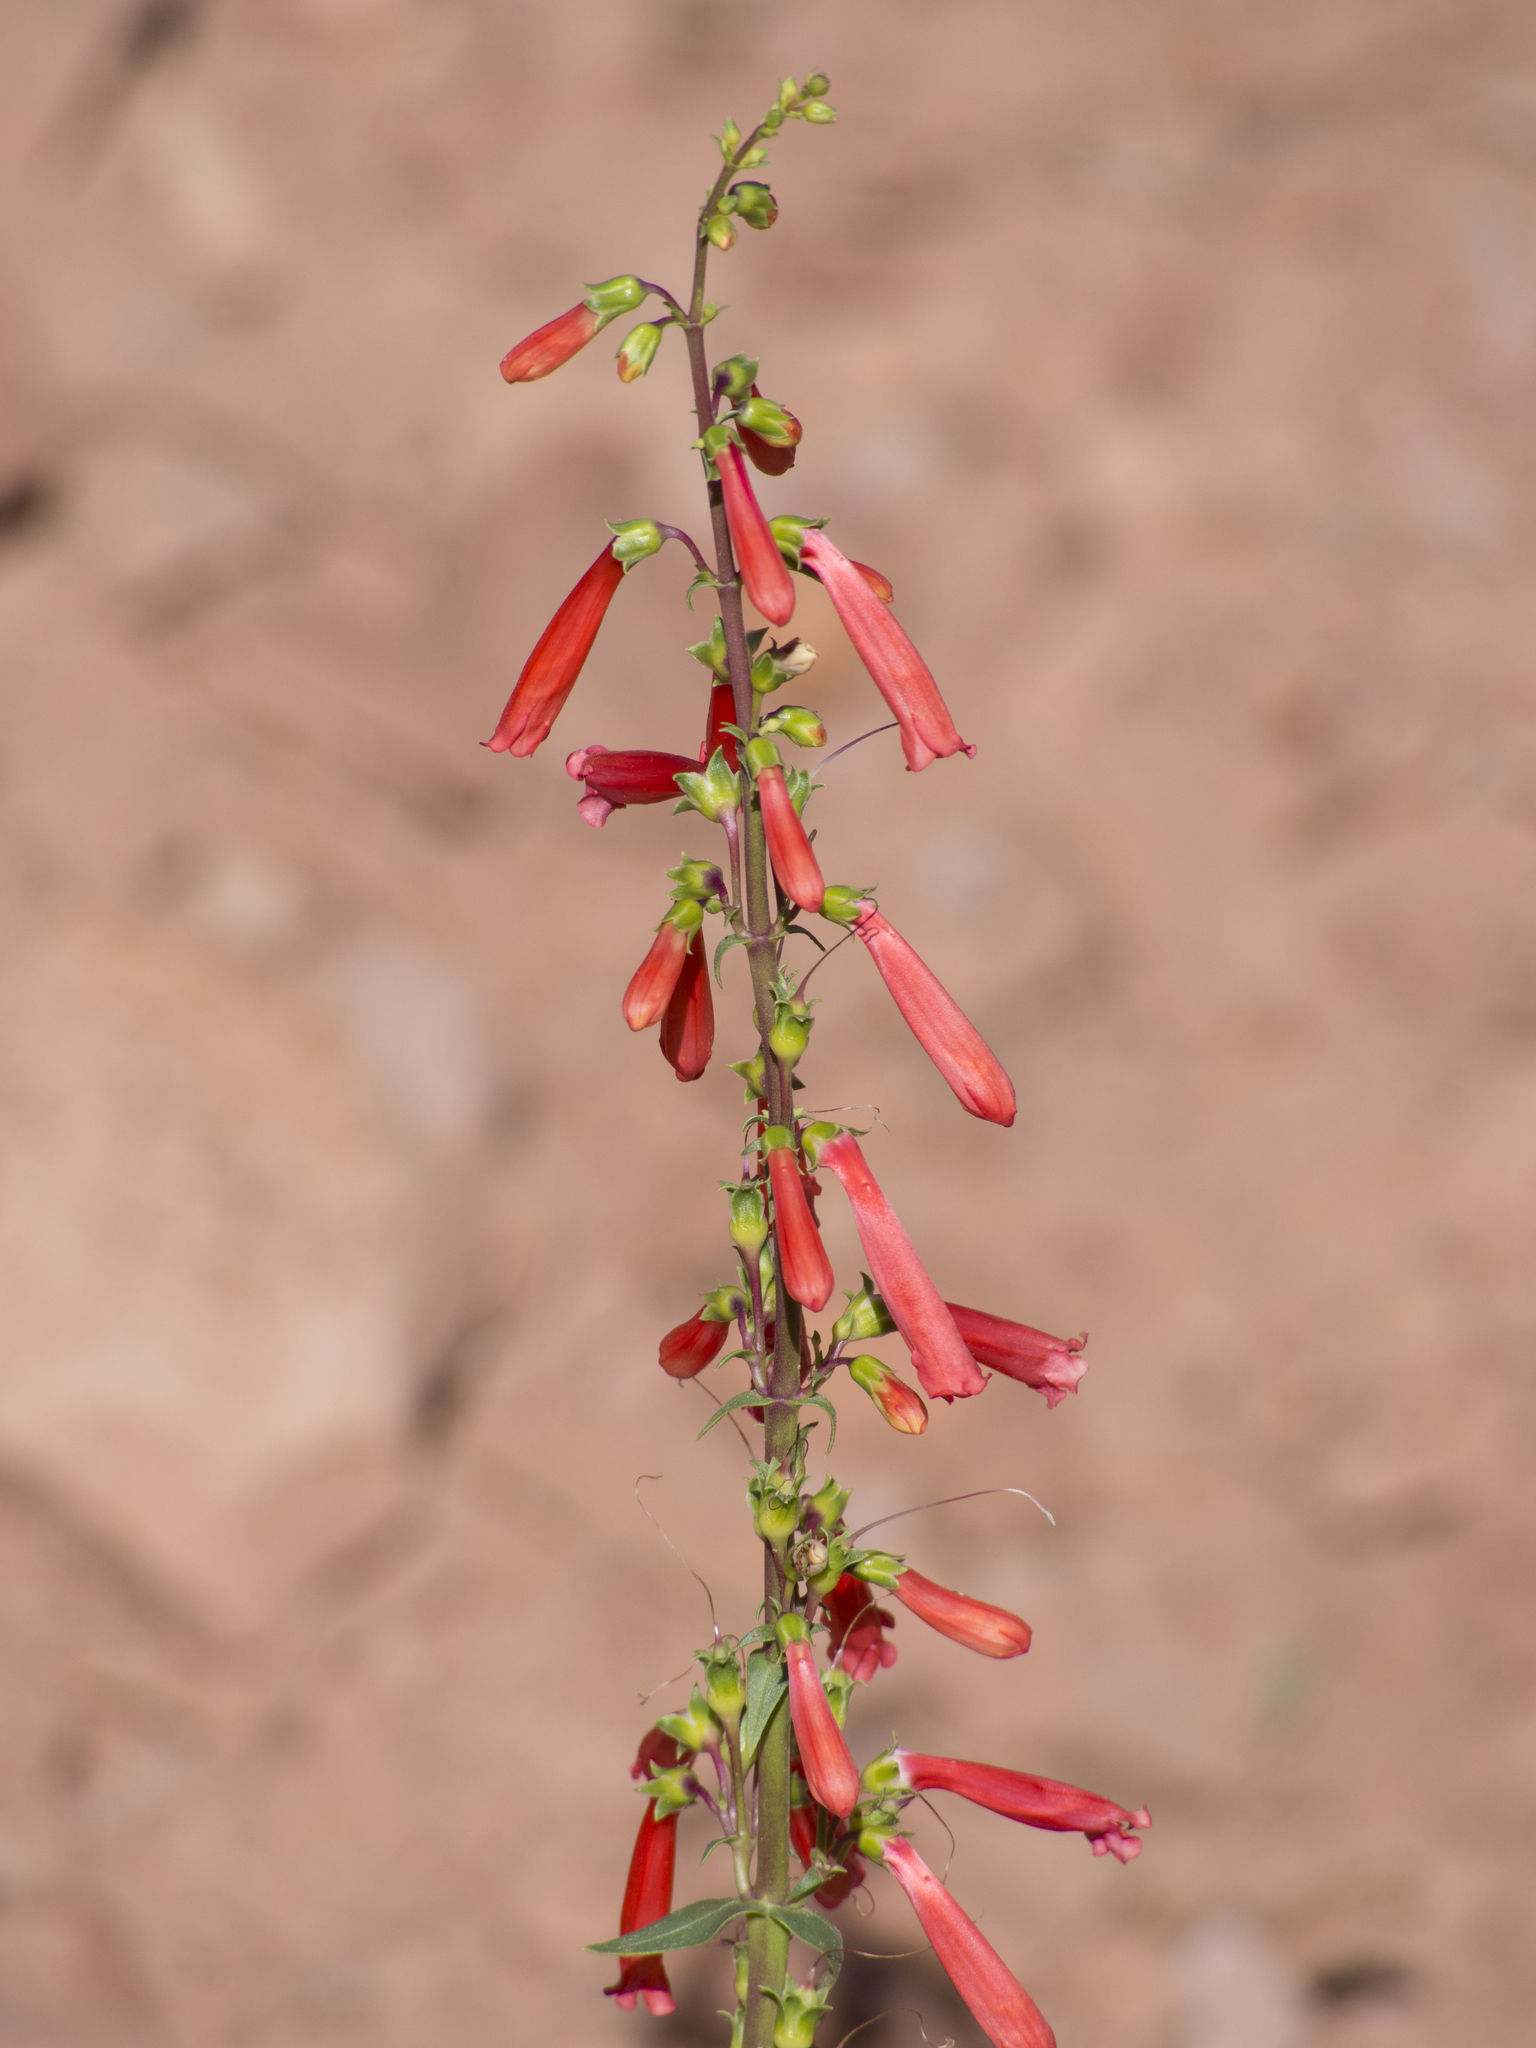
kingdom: Plantae
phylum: Tracheophyta
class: Magnoliopsida
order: Lamiales
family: Plantaginaceae
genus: Penstemon
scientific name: Penstemon eatonii
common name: Eaton's penstemon
